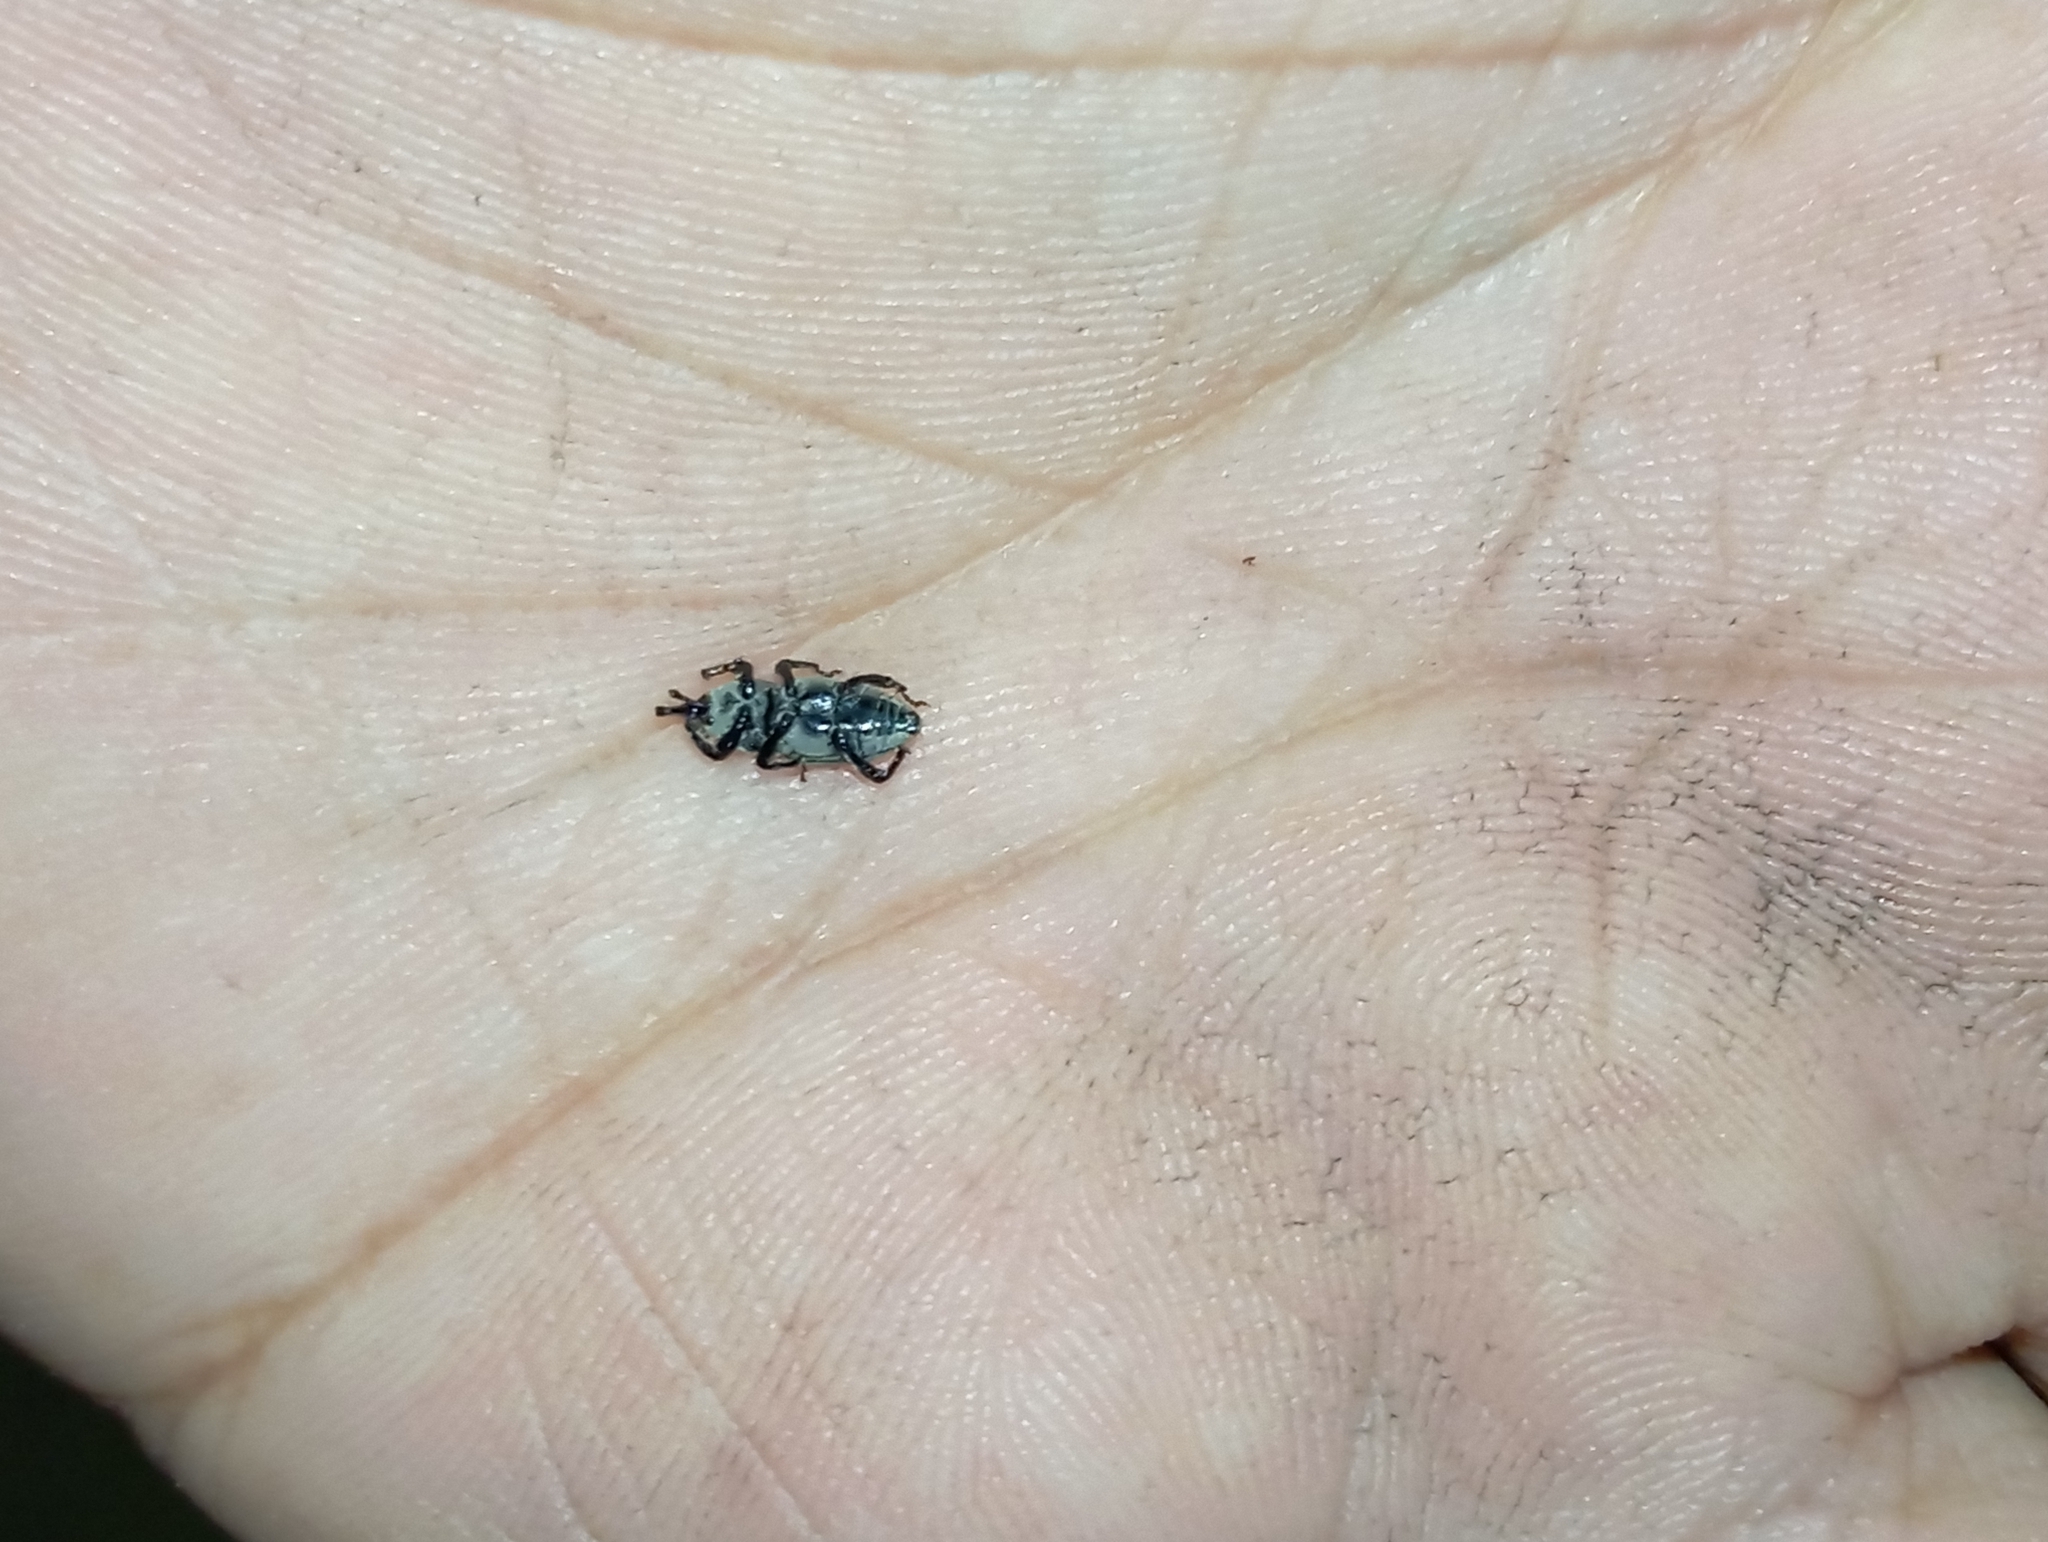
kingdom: Animalia
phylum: Arthropoda
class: Insecta
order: Coleoptera
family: Dryophthoridae
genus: Sphenophorus
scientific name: Sphenophorus venatus
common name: Hunting billbug
